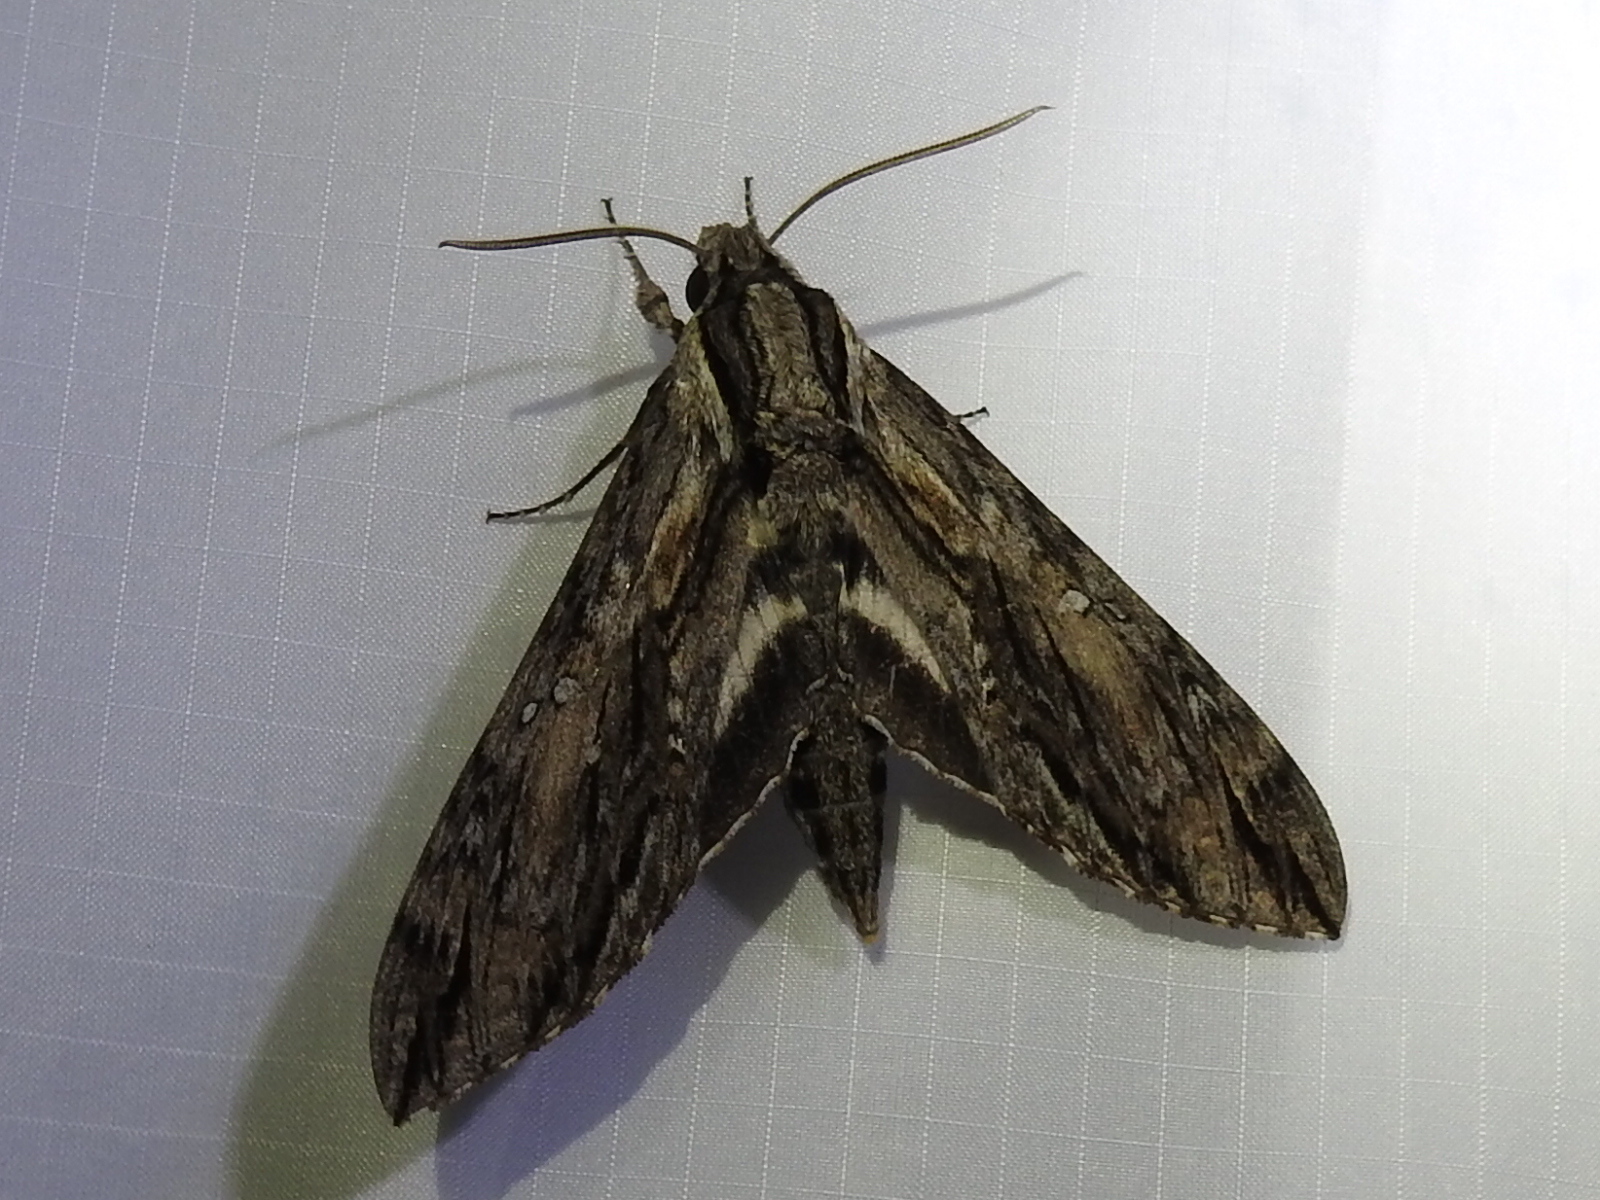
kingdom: Animalia
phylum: Arthropoda
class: Insecta
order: Lepidoptera
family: Sphingidae
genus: Lintneria
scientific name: Lintneria istar
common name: Istar sphinx
